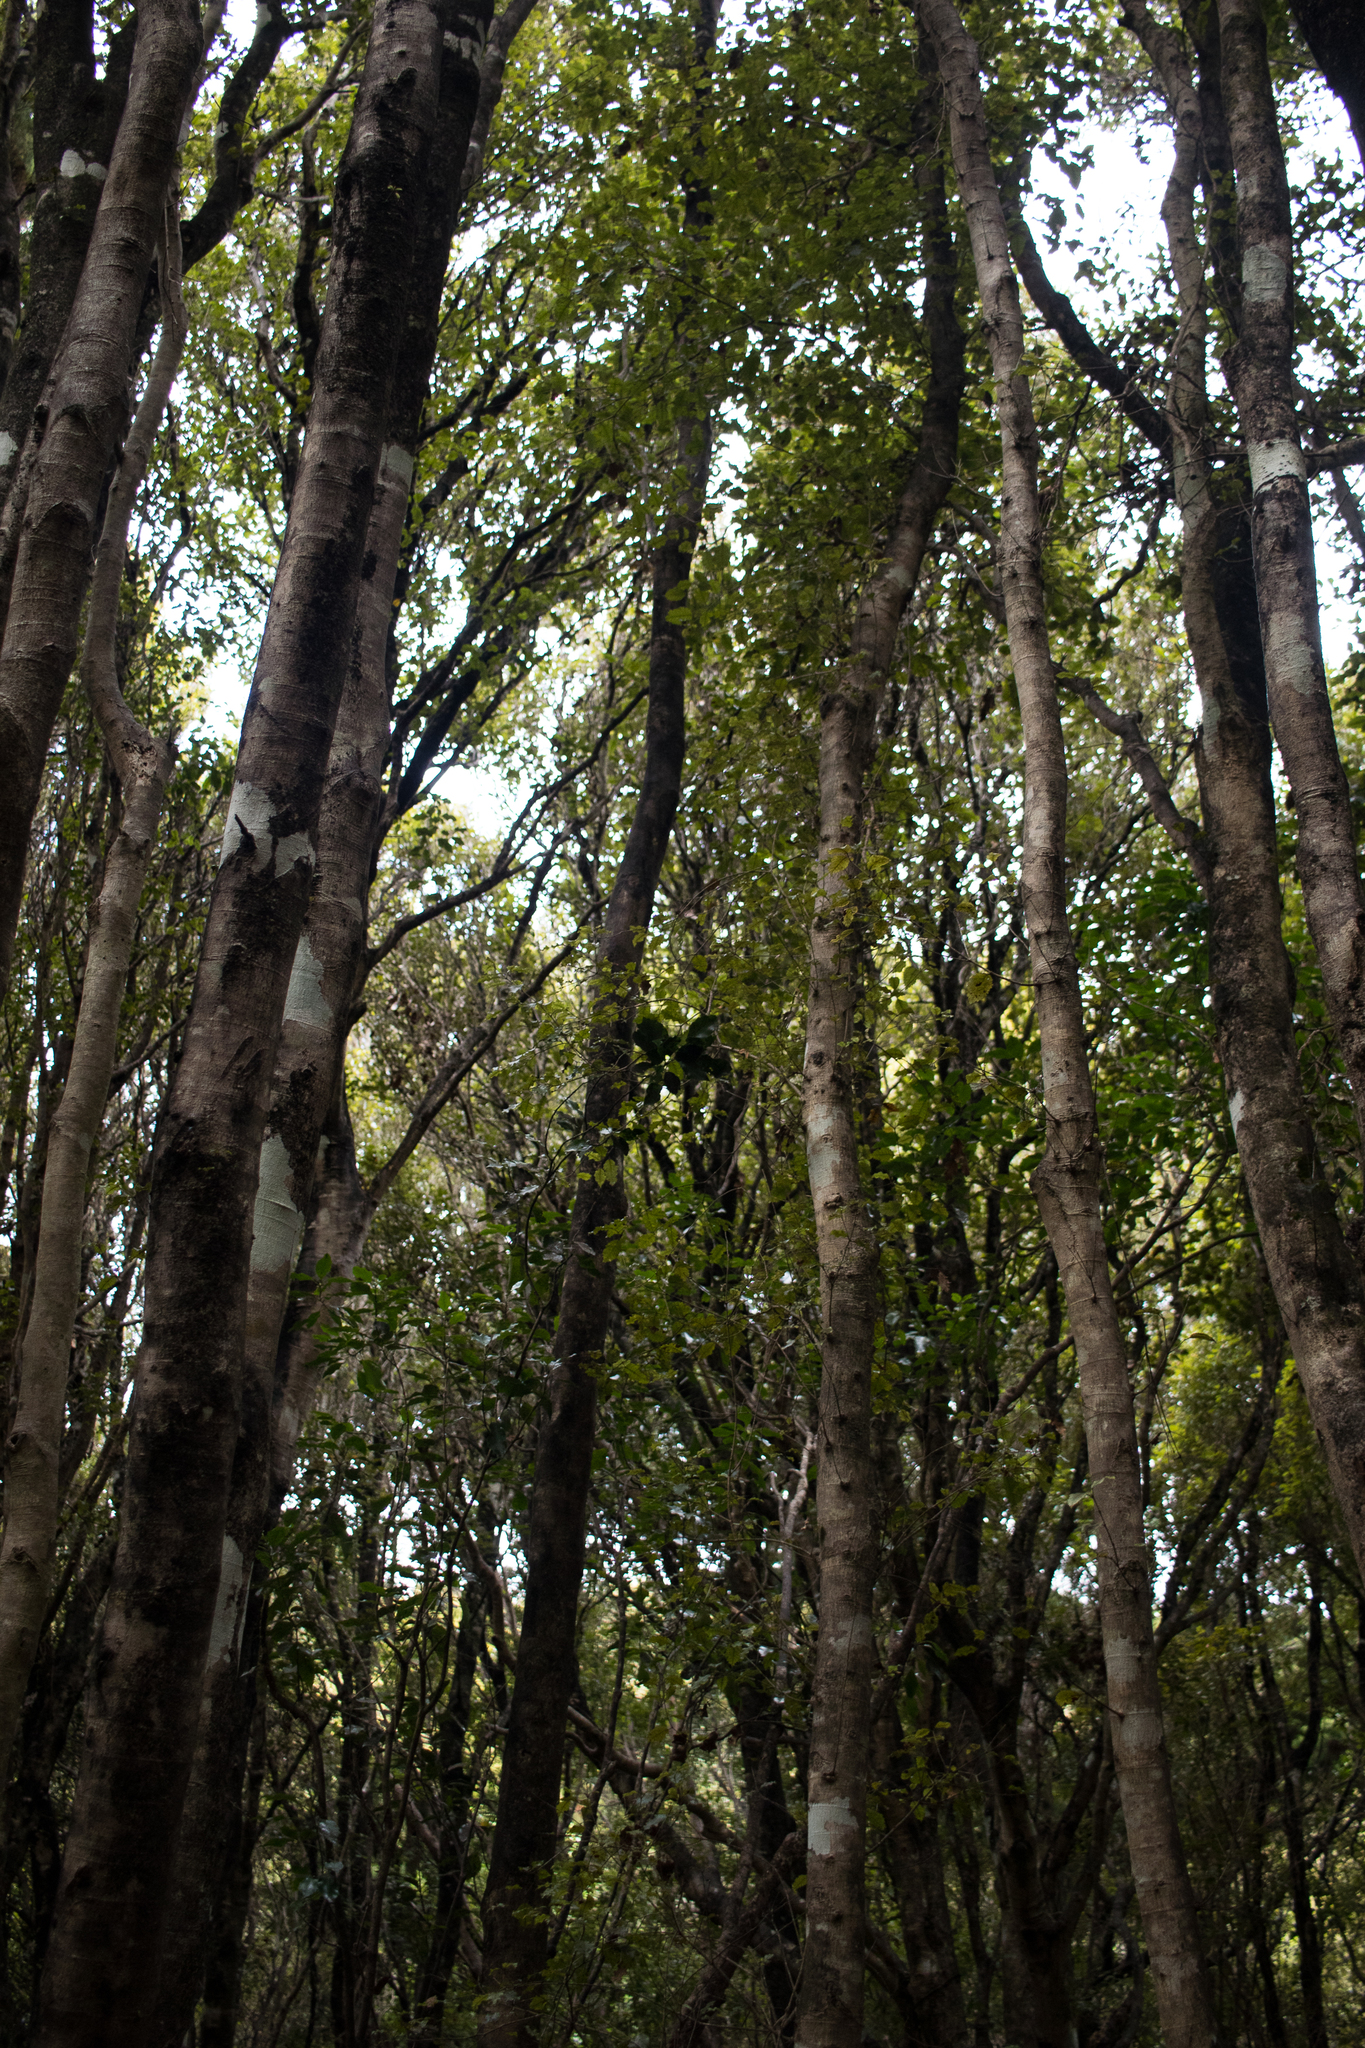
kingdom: Plantae
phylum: Tracheophyta
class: Magnoliopsida
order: Oxalidales
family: Cunoniaceae
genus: Pterophylla
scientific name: Pterophylla racemosa
